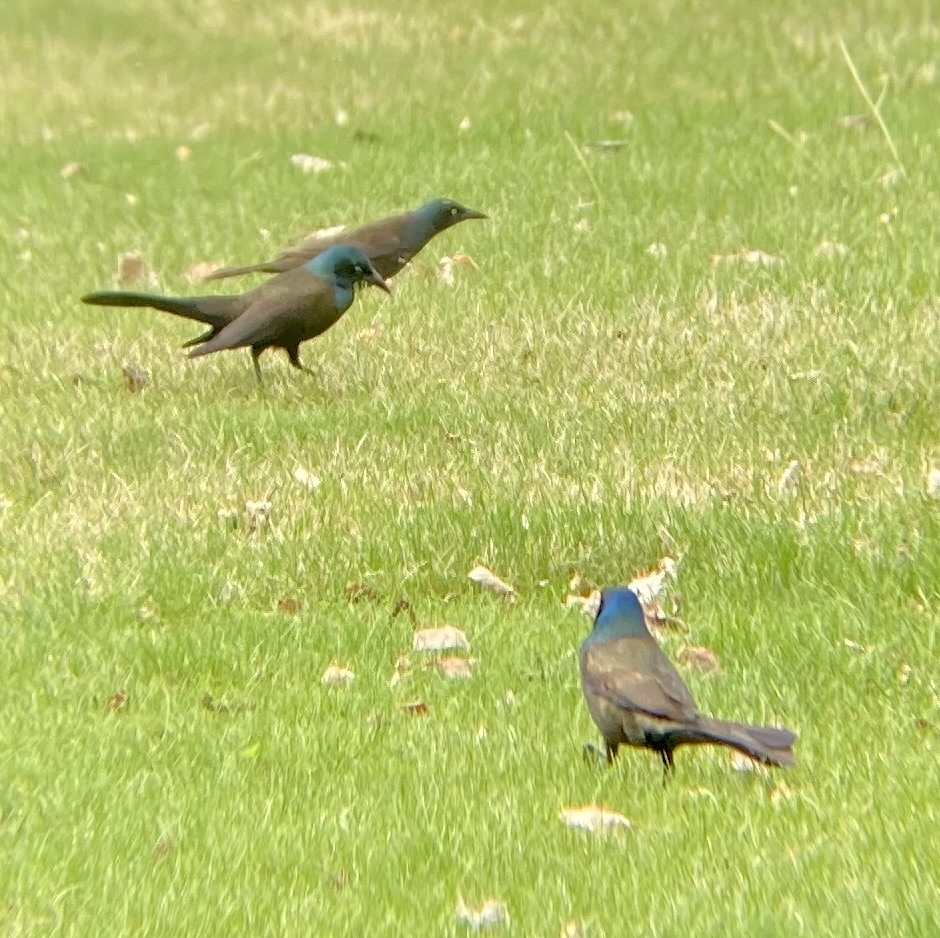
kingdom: Animalia
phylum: Chordata
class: Aves
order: Passeriformes
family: Icteridae
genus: Quiscalus
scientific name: Quiscalus quiscula
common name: Common grackle
